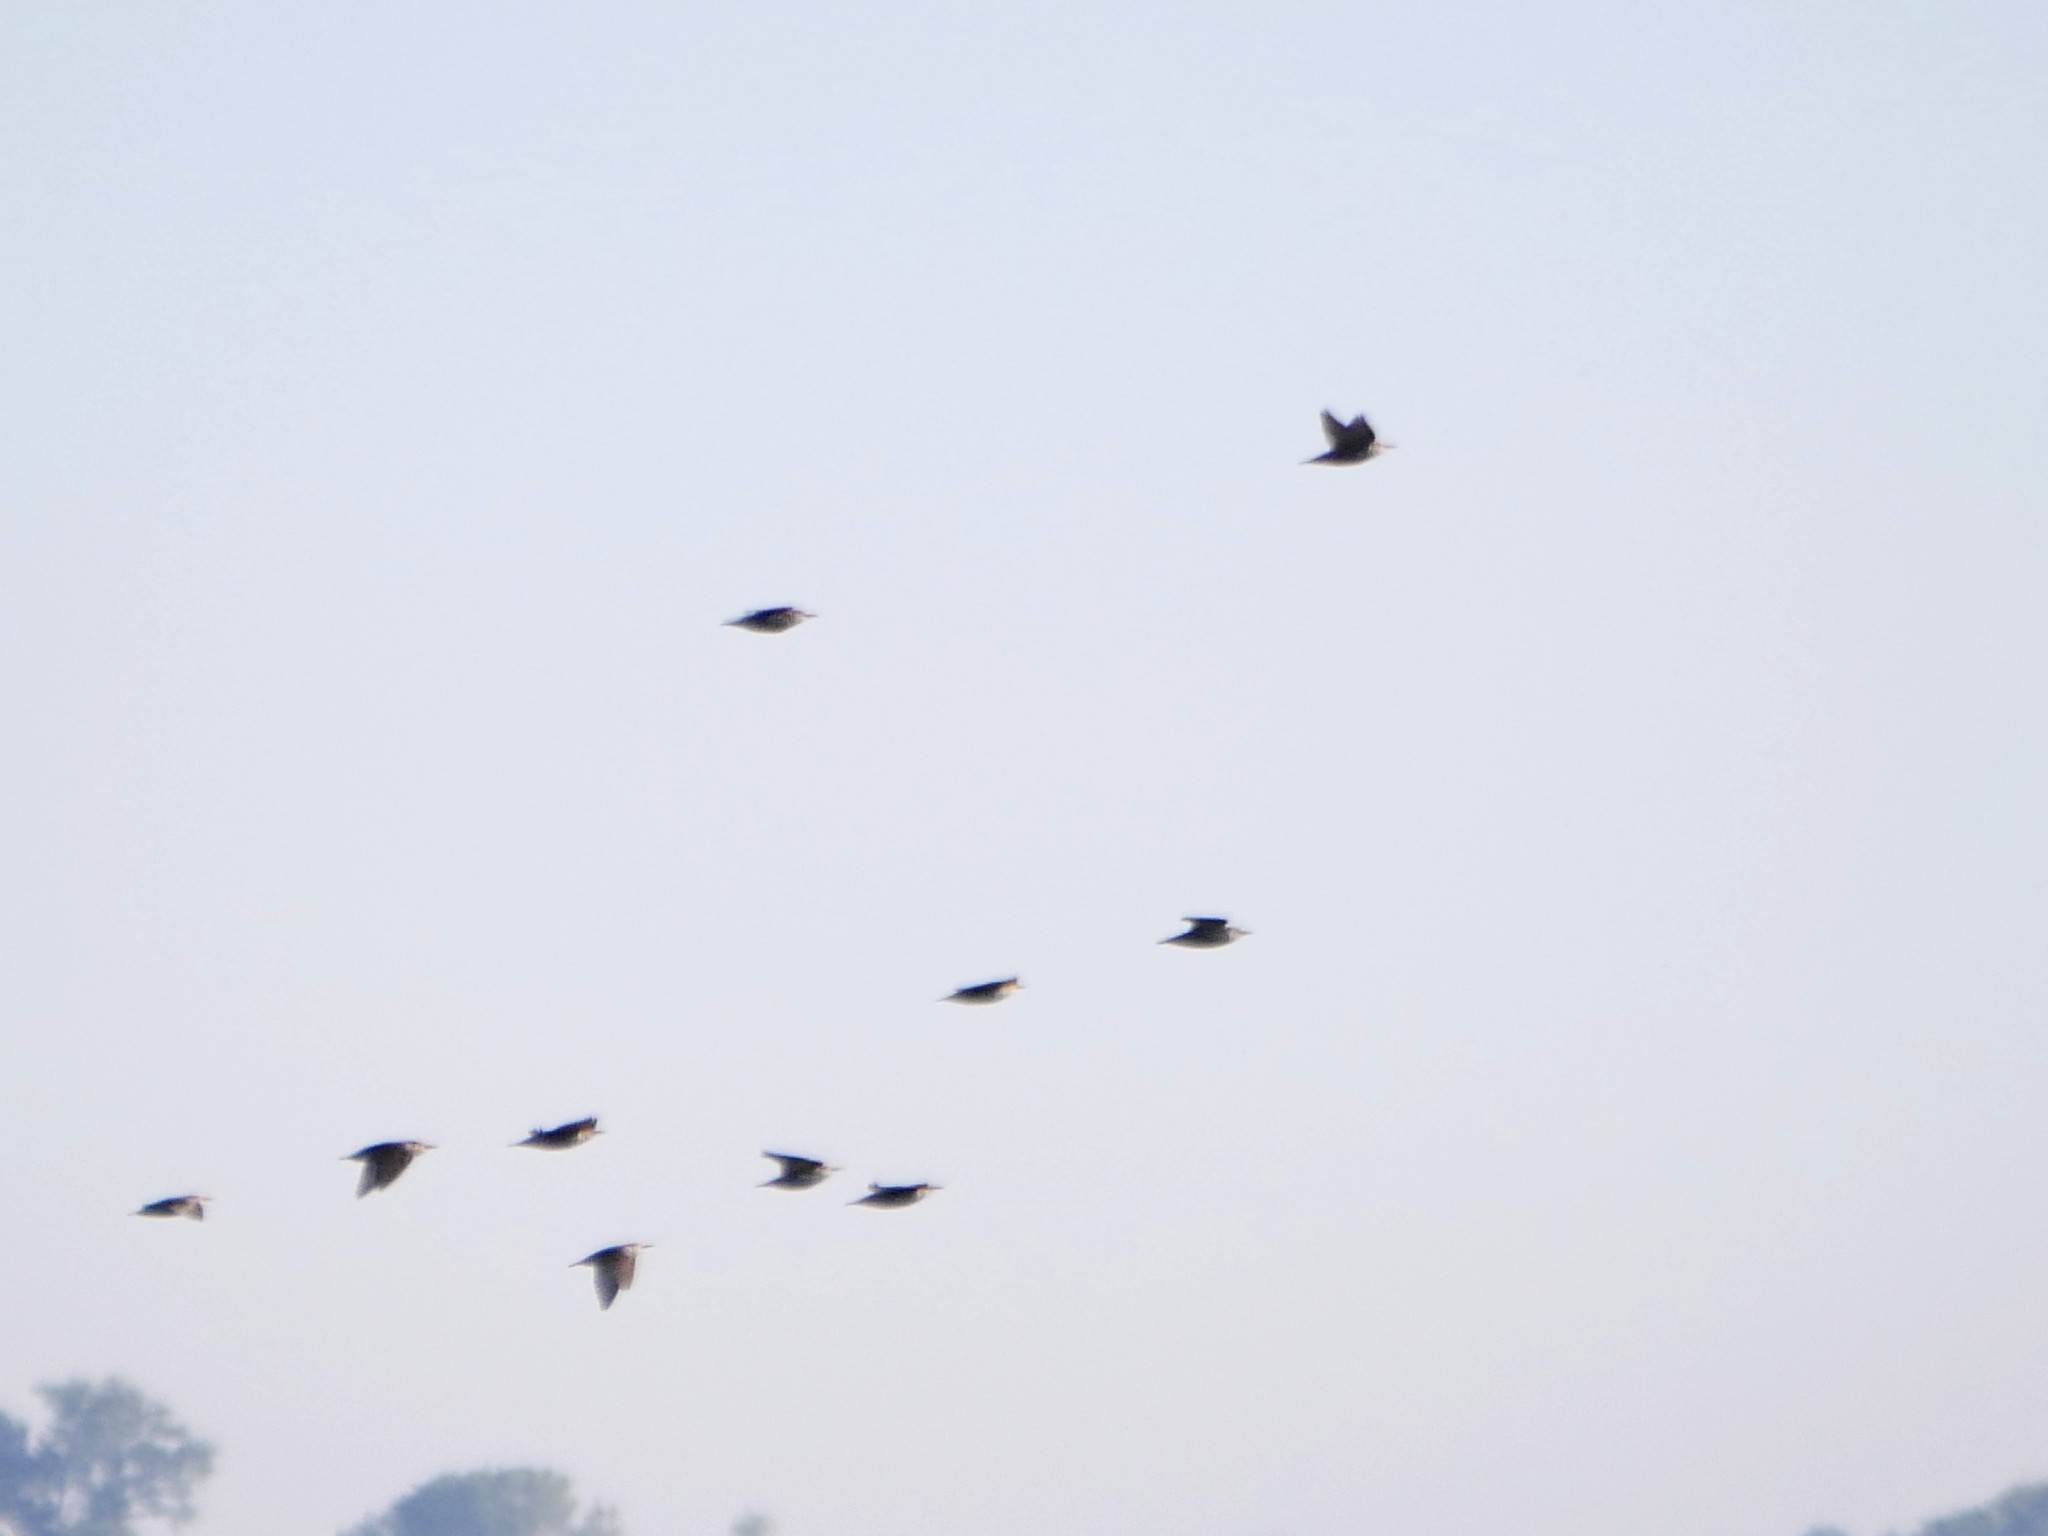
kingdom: Animalia
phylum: Chordata
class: Aves
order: Passeriformes
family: Sturnidae
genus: Sturnus
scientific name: Sturnus vulgaris
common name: Common starling
